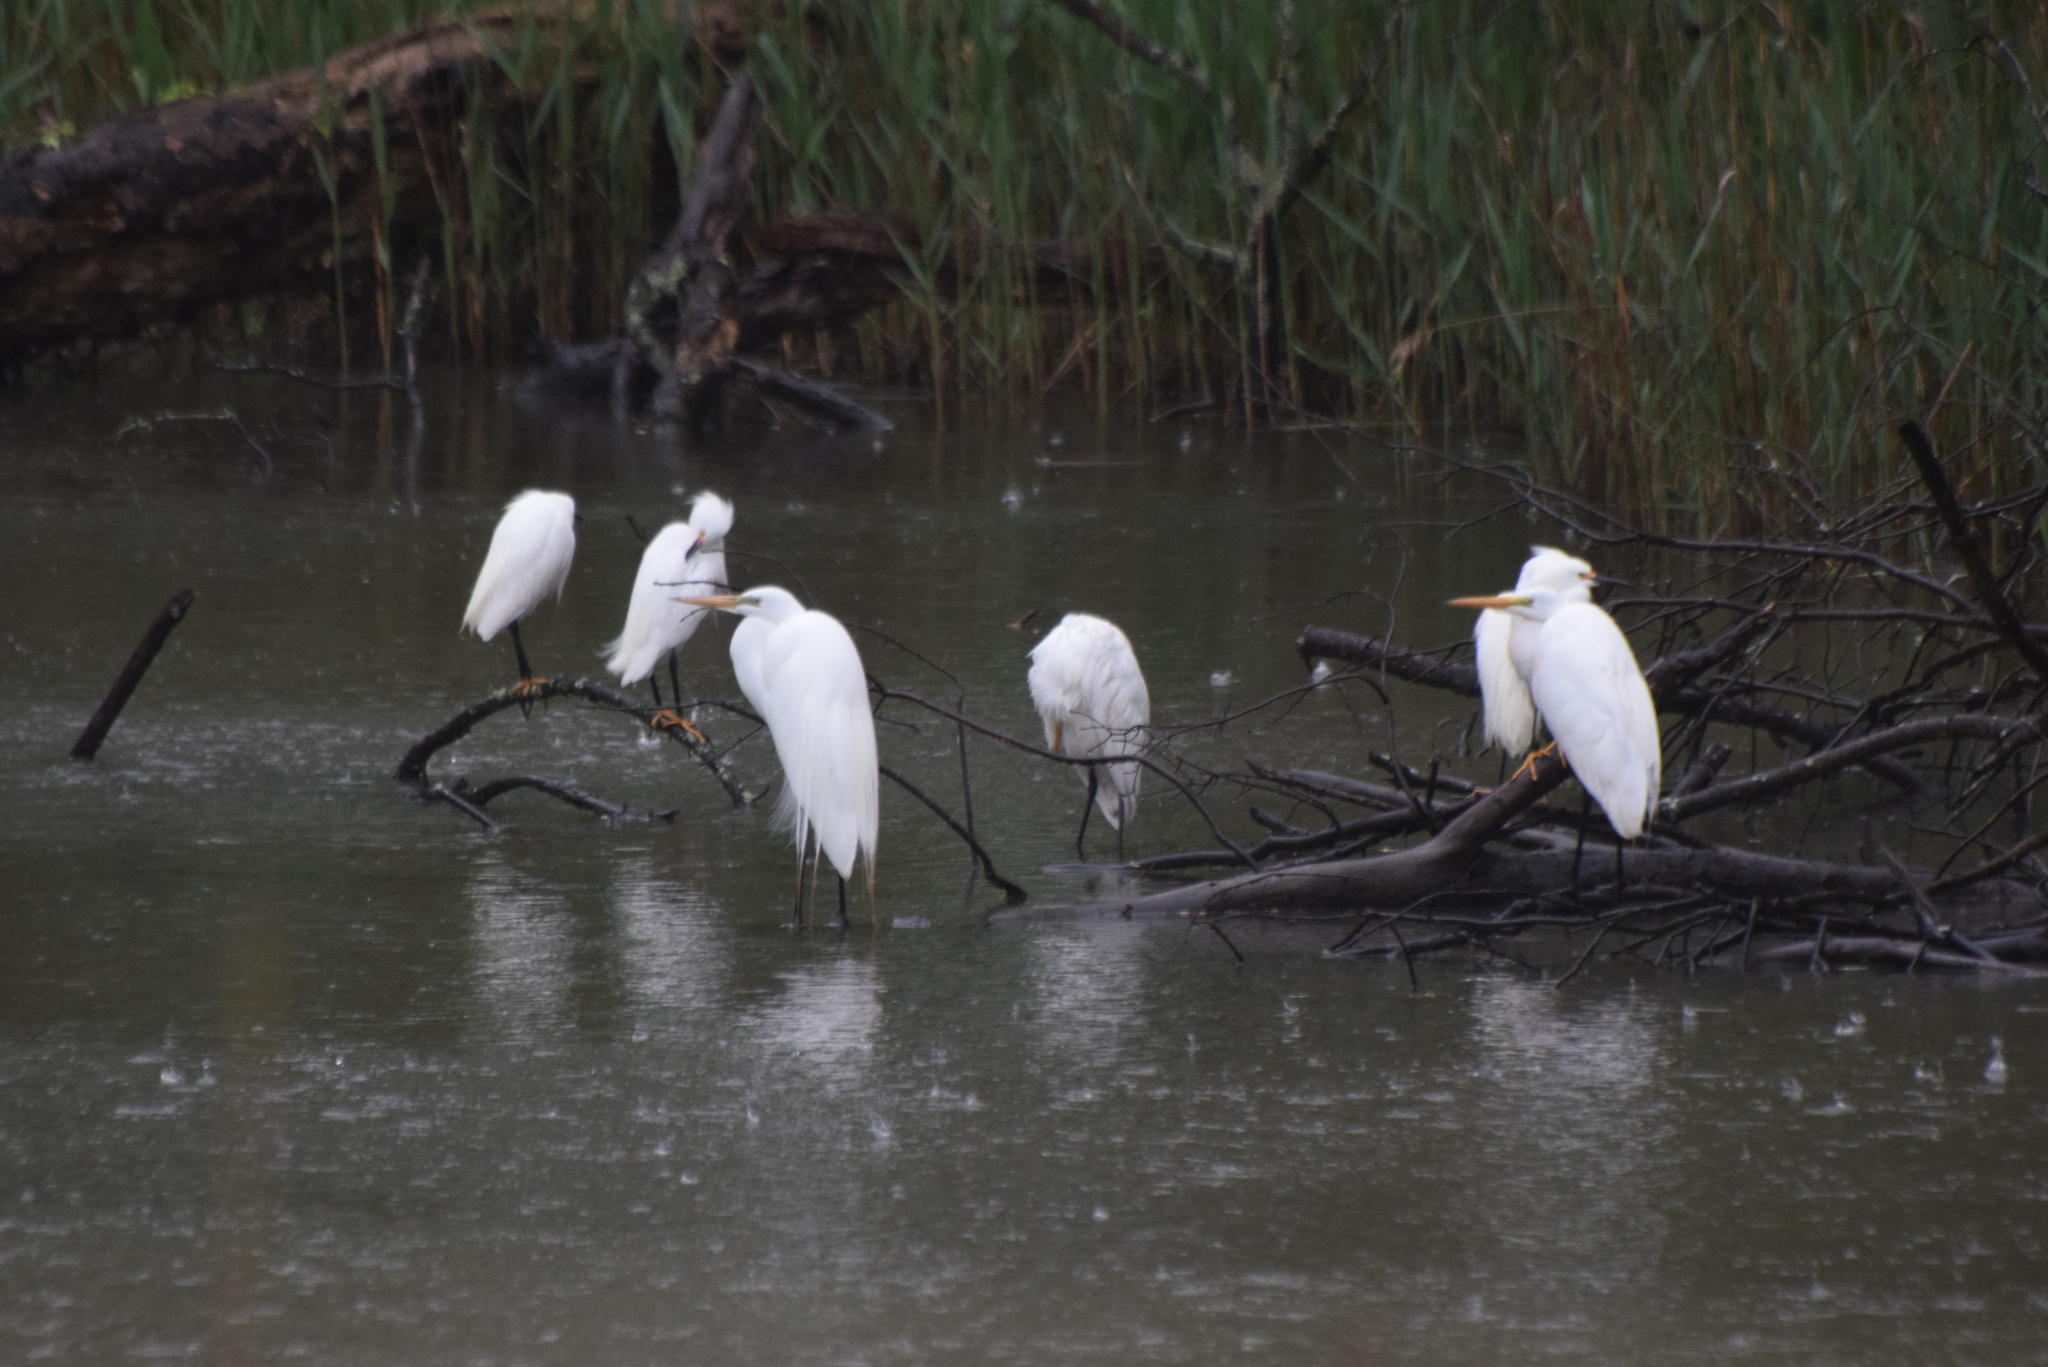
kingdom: Animalia
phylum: Chordata
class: Aves
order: Pelecaniformes
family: Ardeidae
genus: Ardea
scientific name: Ardea alba
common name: Great egret
